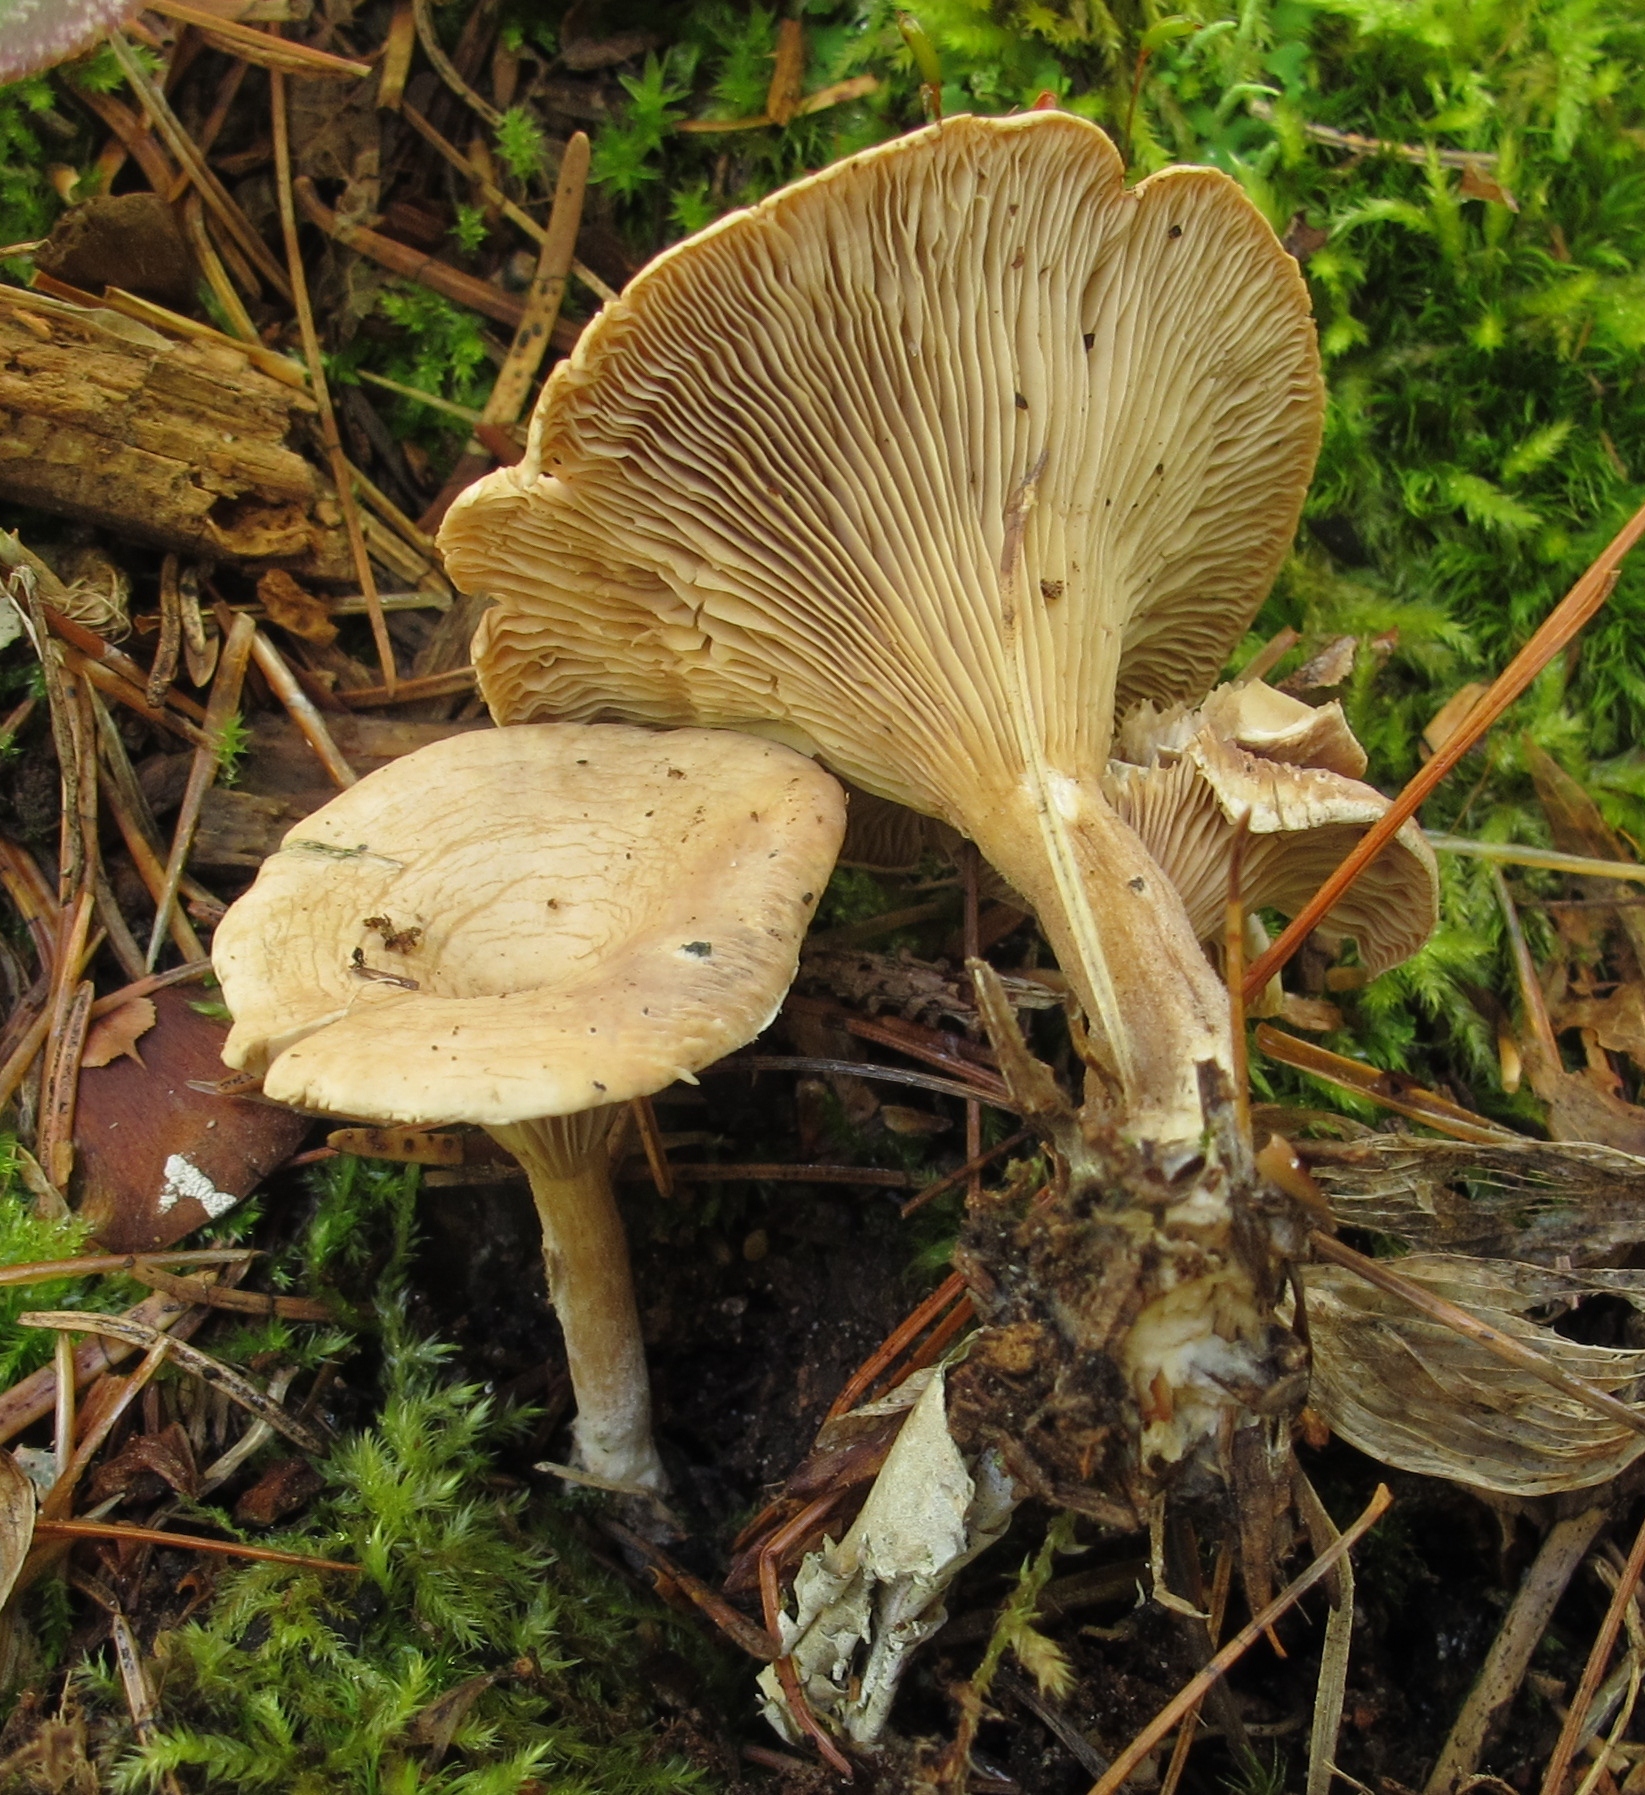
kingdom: Fungi
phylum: Basidiomycota
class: Agaricomycetes
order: Agaricales
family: Tricholomataceae
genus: Lulesia
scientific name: Lulesia
